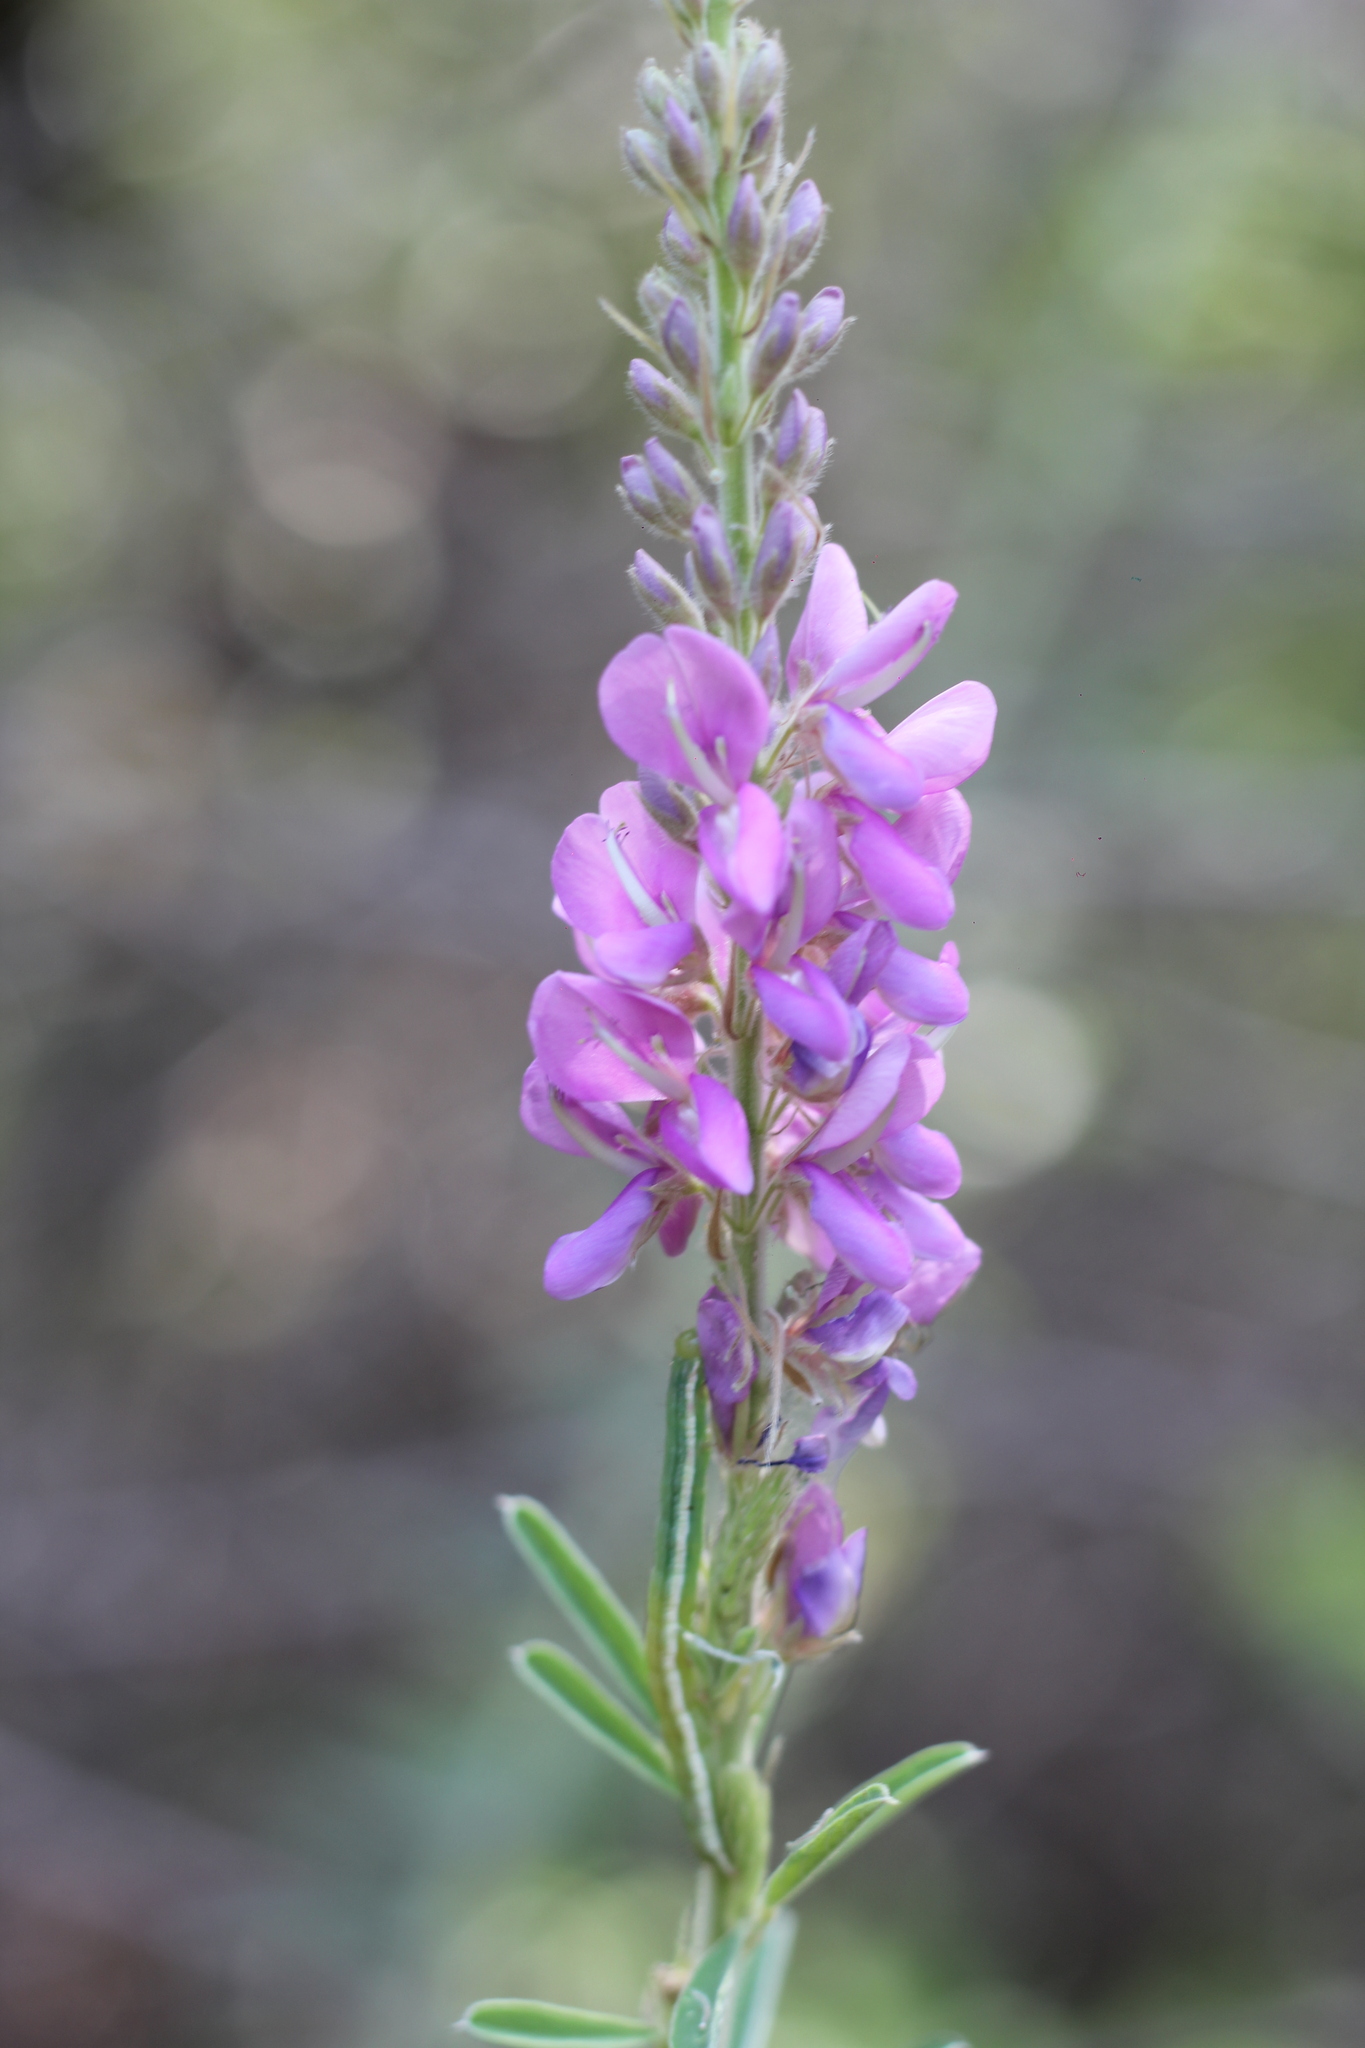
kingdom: Plantae
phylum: Tracheophyta
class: Magnoliopsida
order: Fabales
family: Fabaceae
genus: Desmodium
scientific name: Desmodium cuneatum
